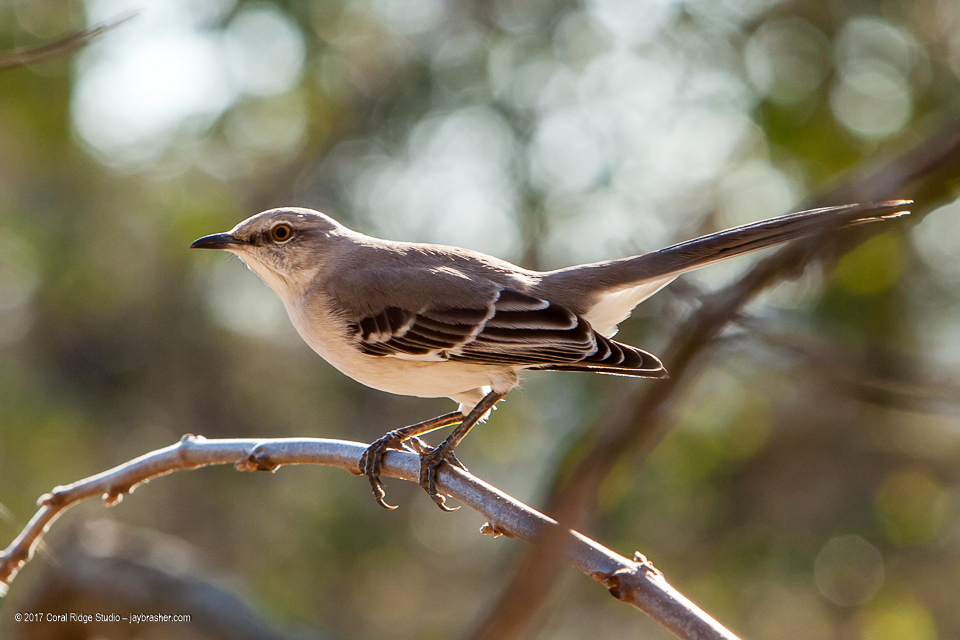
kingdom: Animalia
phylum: Chordata
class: Aves
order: Passeriformes
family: Mimidae
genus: Mimus
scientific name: Mimus polyglottos
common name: Northern mockingbird
